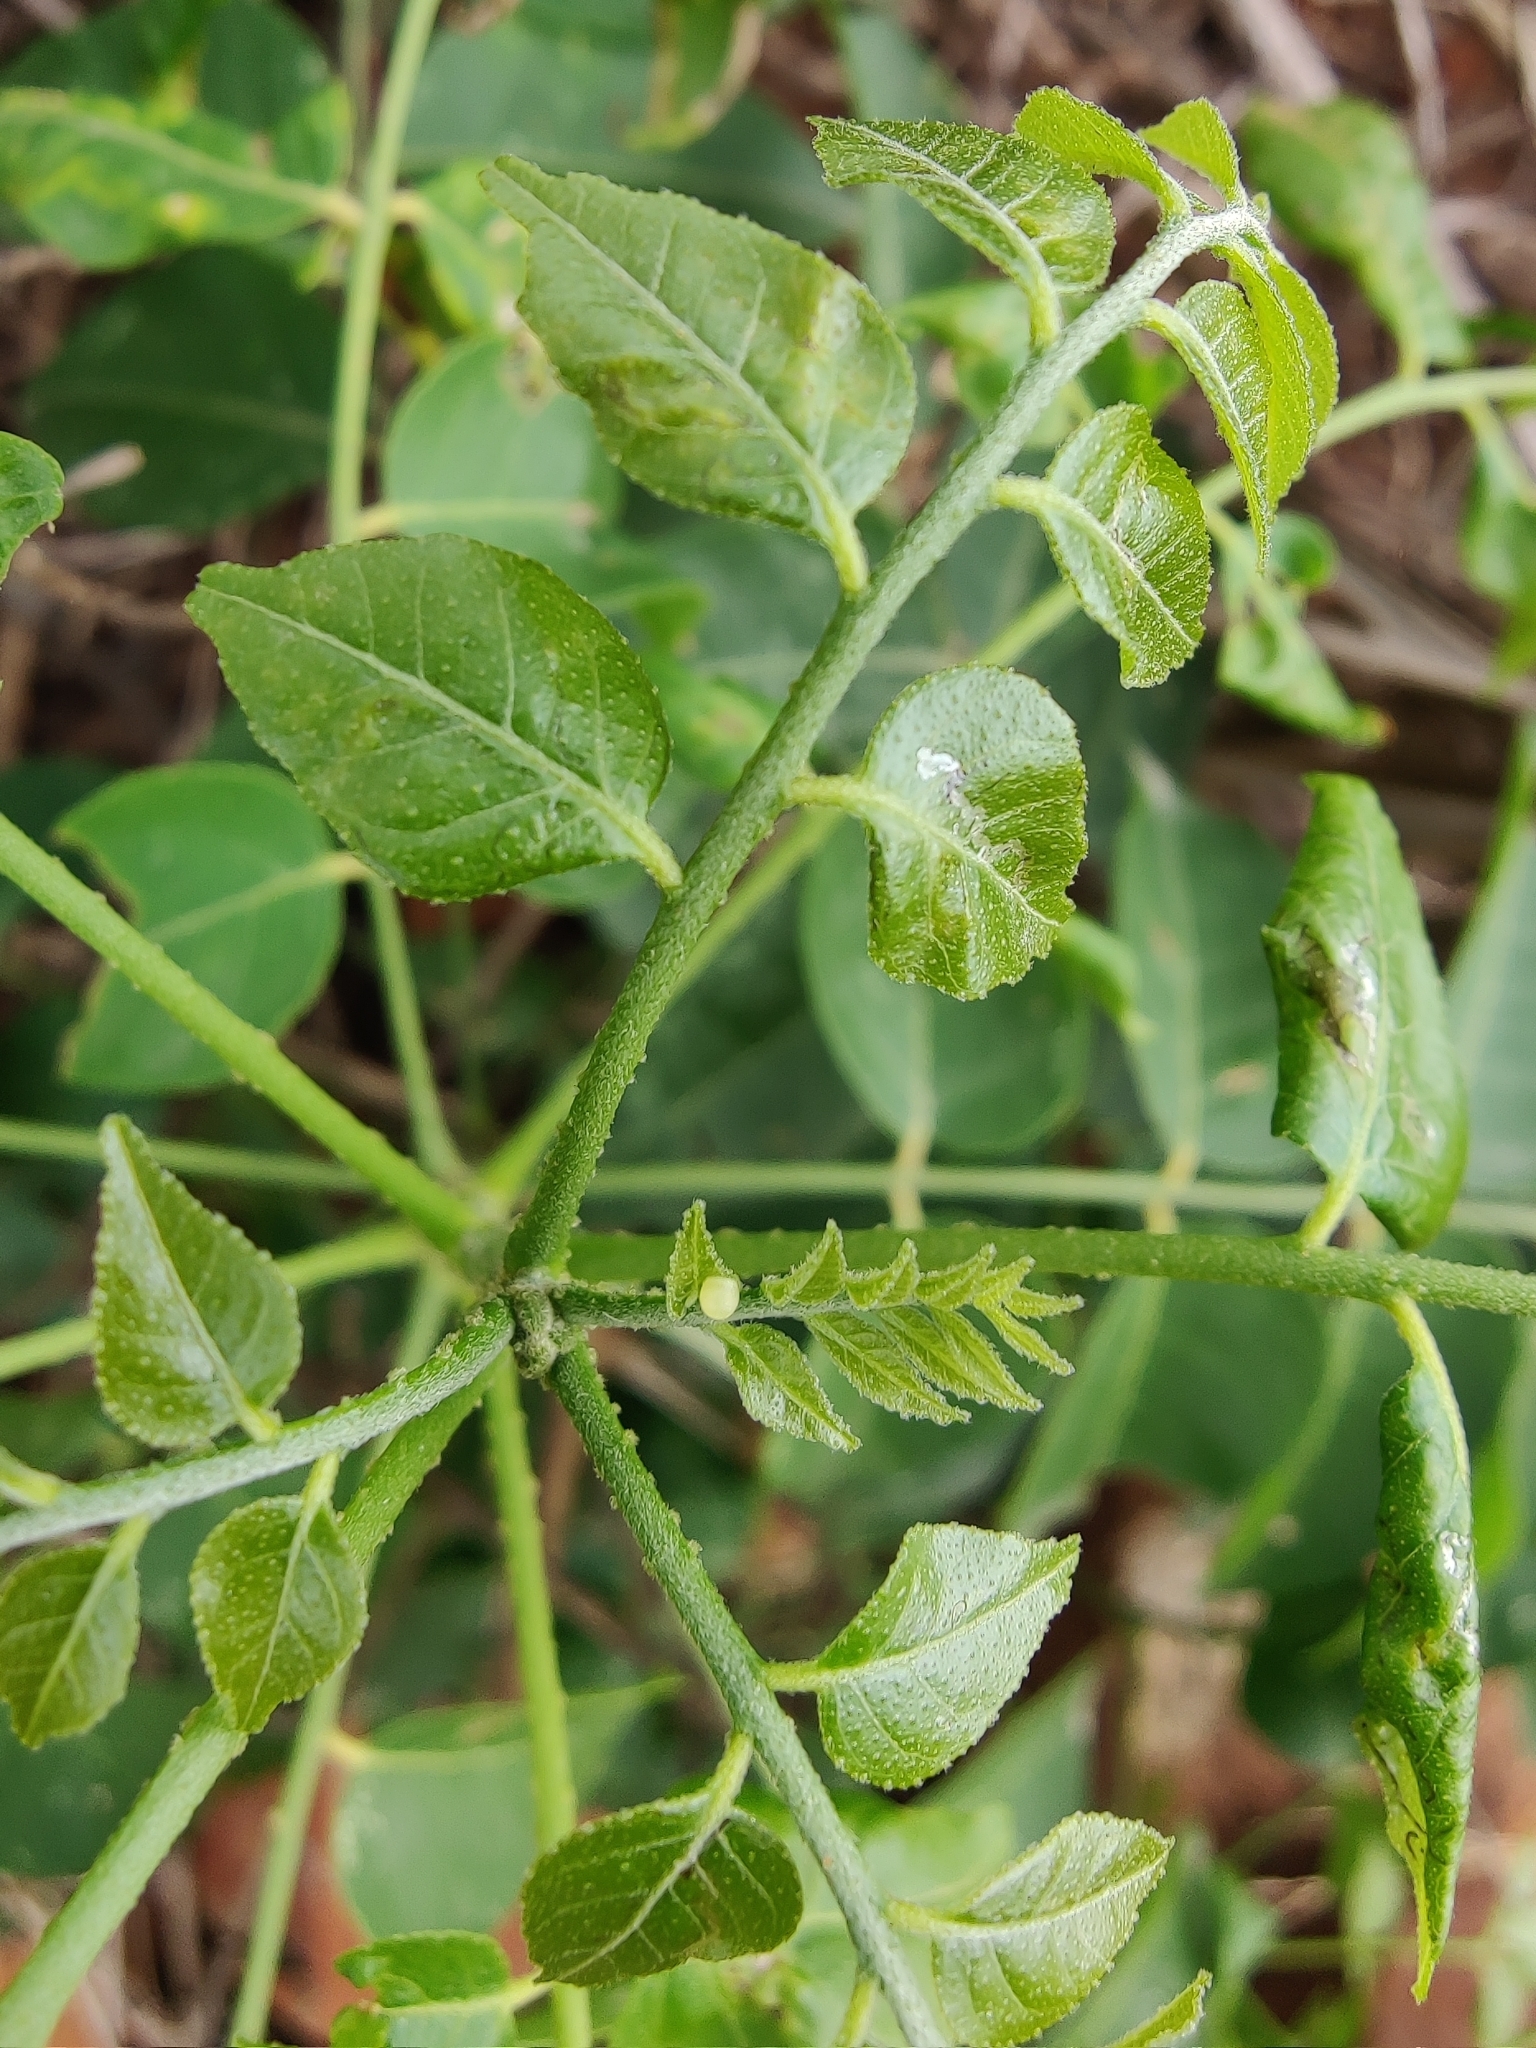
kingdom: Animalia
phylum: Arthropoda
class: Insecta
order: Lepidoptera
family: Papilionidae
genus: Papilio
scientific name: Papilio polytes
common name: Common mormon
